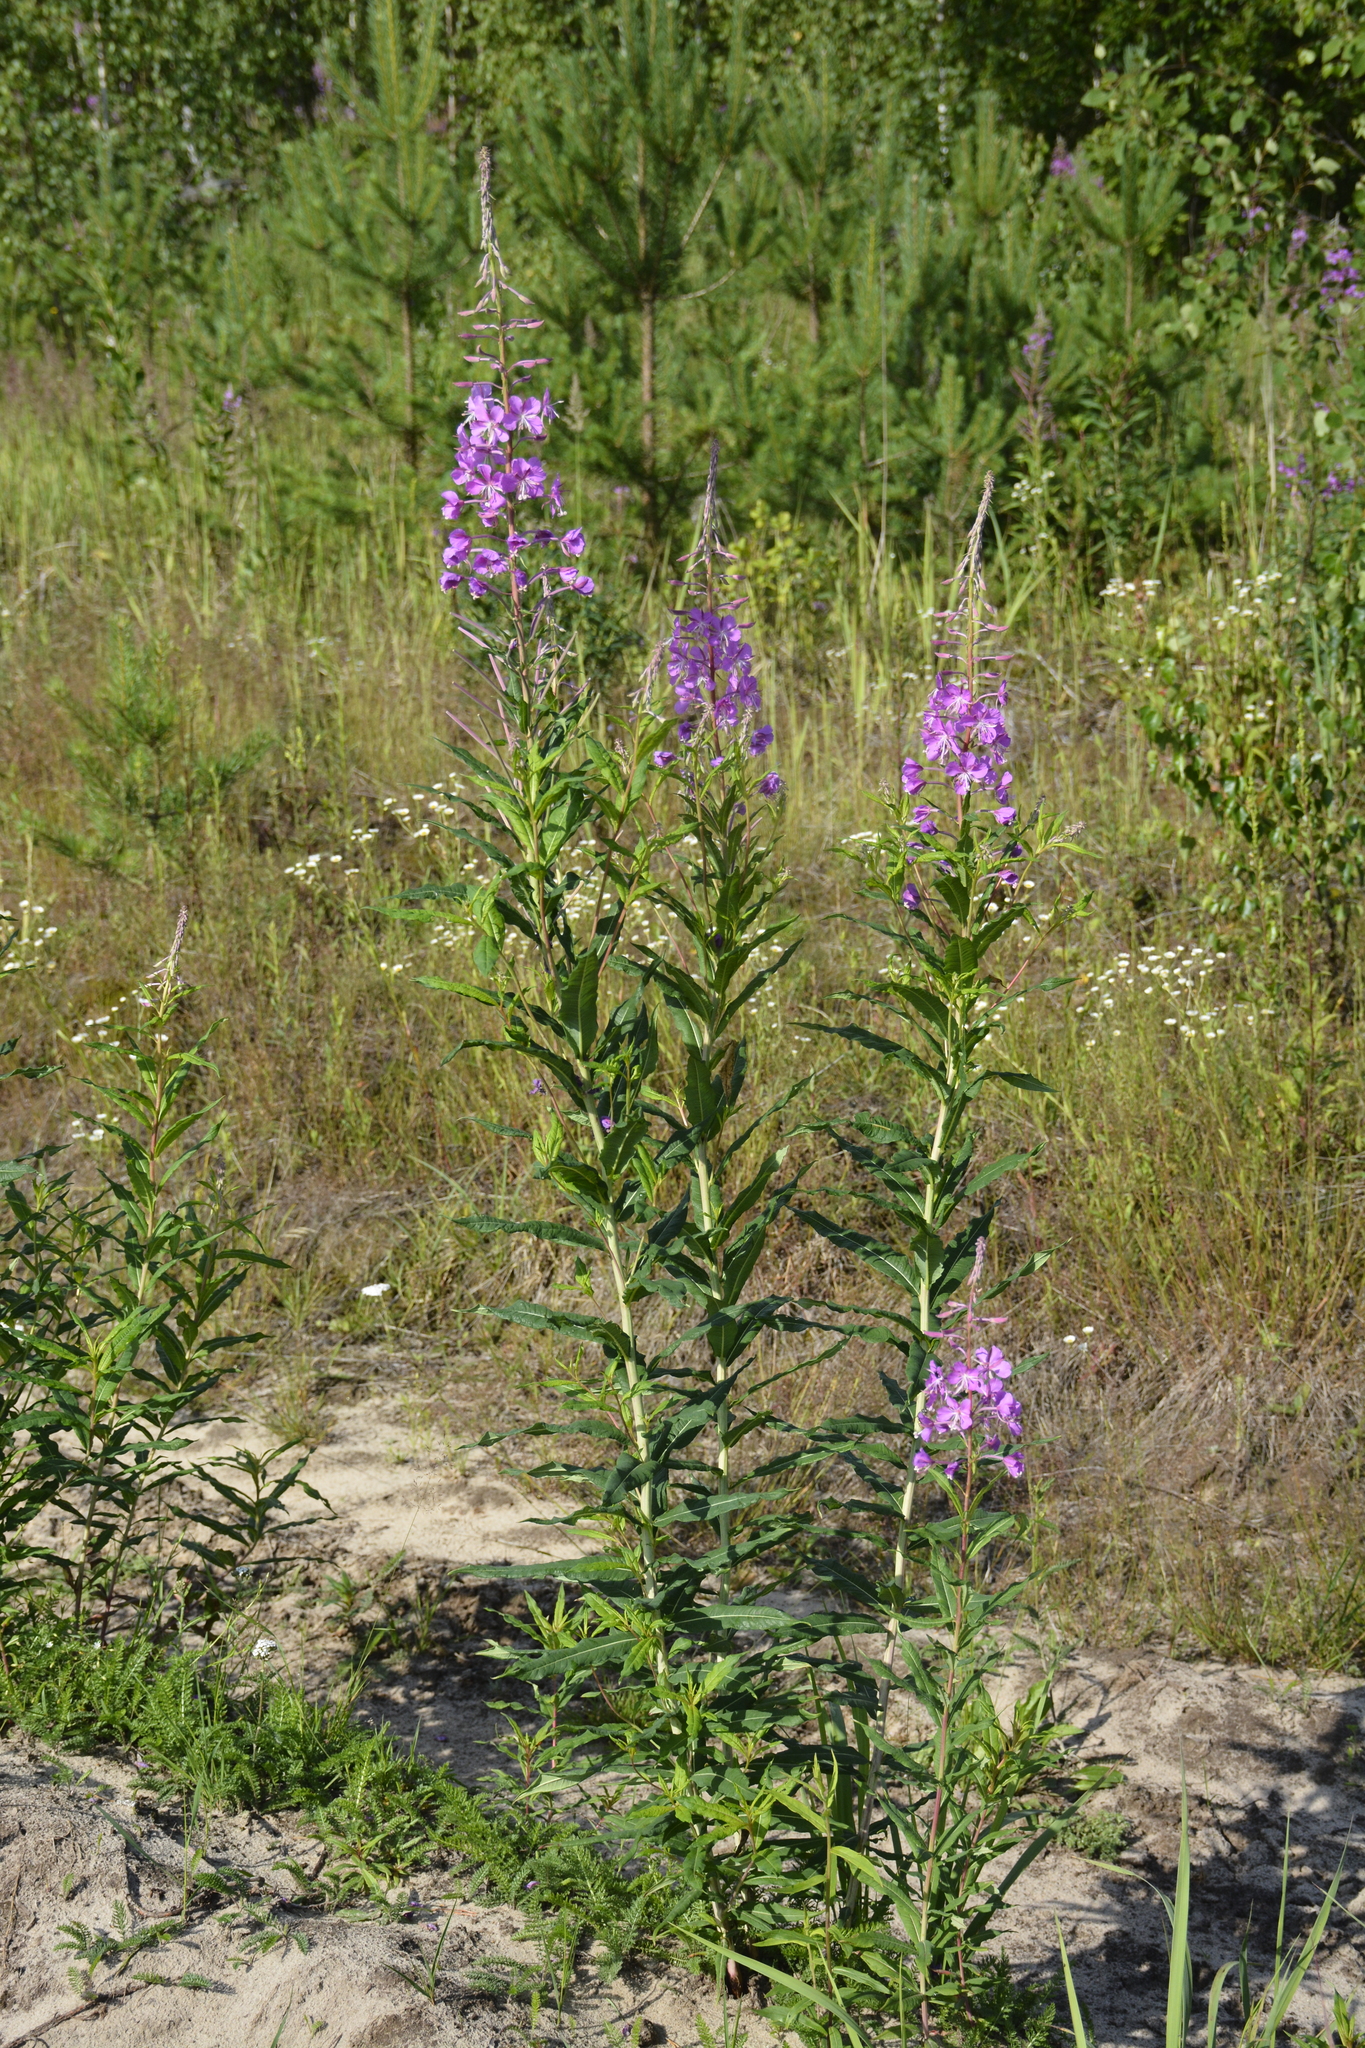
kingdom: Plantae
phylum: Tracheophyta
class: Magnoliopsida
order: Myrtales
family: Onagraceae
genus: Chamaenerion
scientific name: Chamaenerion angustifolium
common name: Fireweed
